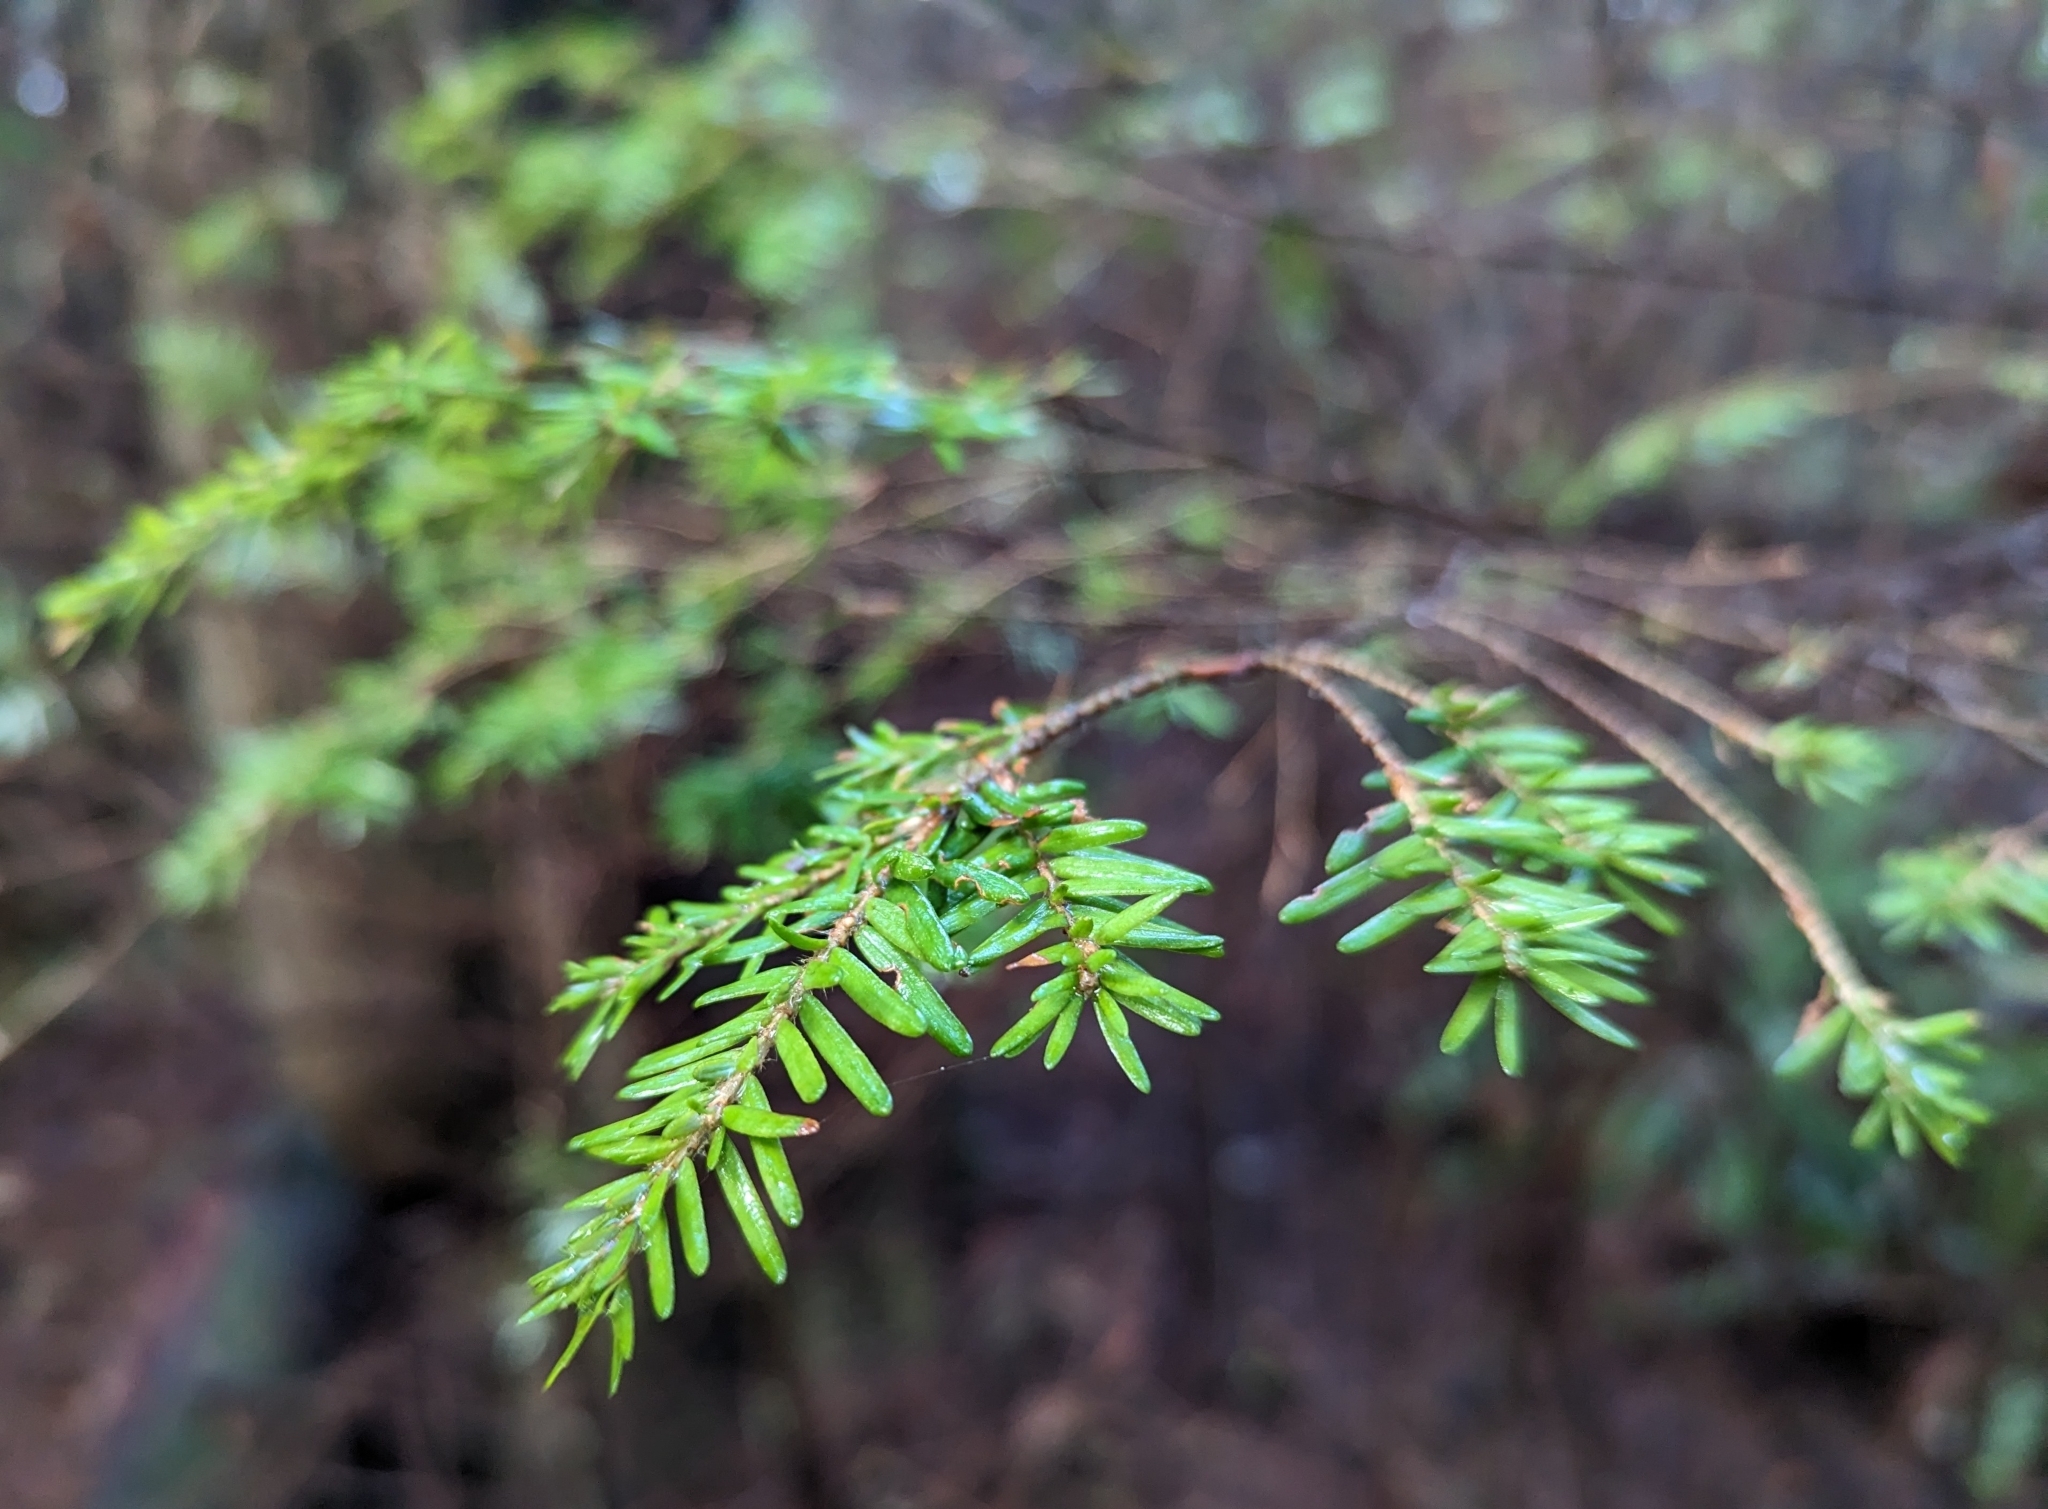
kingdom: Plantae
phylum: Tracheophyta
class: Pinopsida
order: Pinales
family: Pinaceae
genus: Tsuga
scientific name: Tsuga heterophylla
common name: Western hemlock
